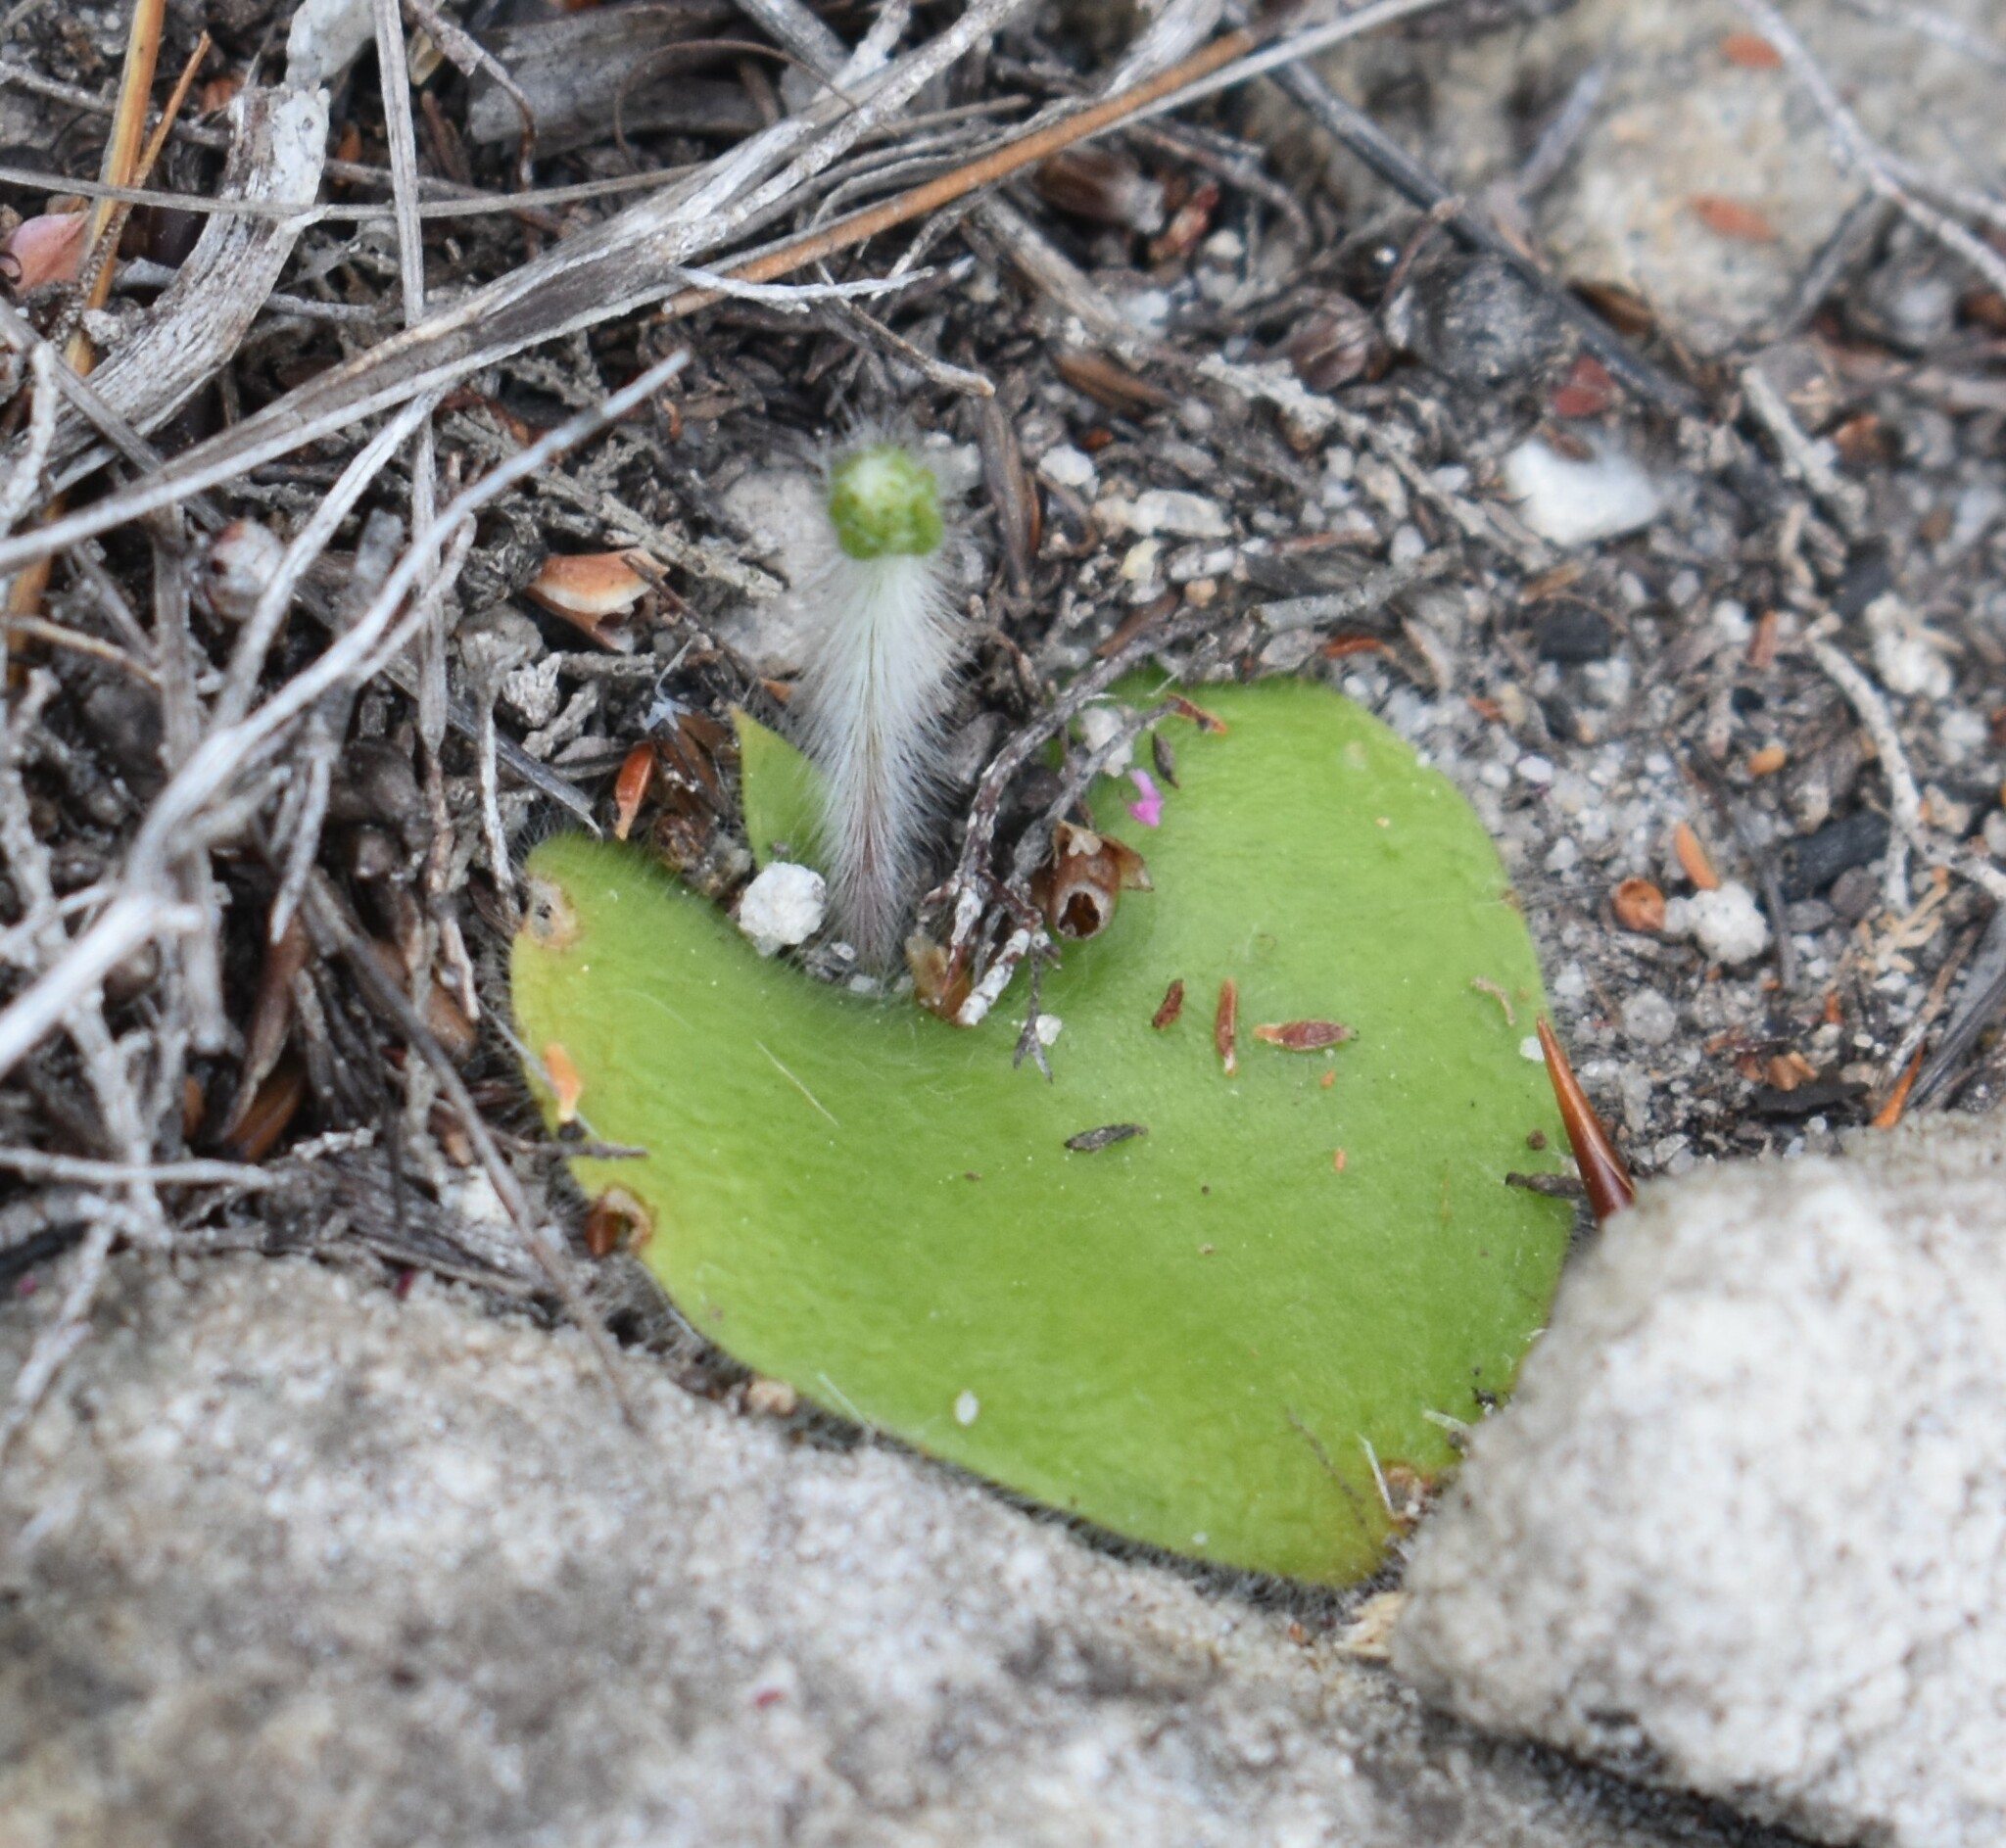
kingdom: Plantae
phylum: Tracheophyta
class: Liliopsida
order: Asparagales
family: Orchidaceae
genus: Holothrix
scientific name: Holothrix villosa
